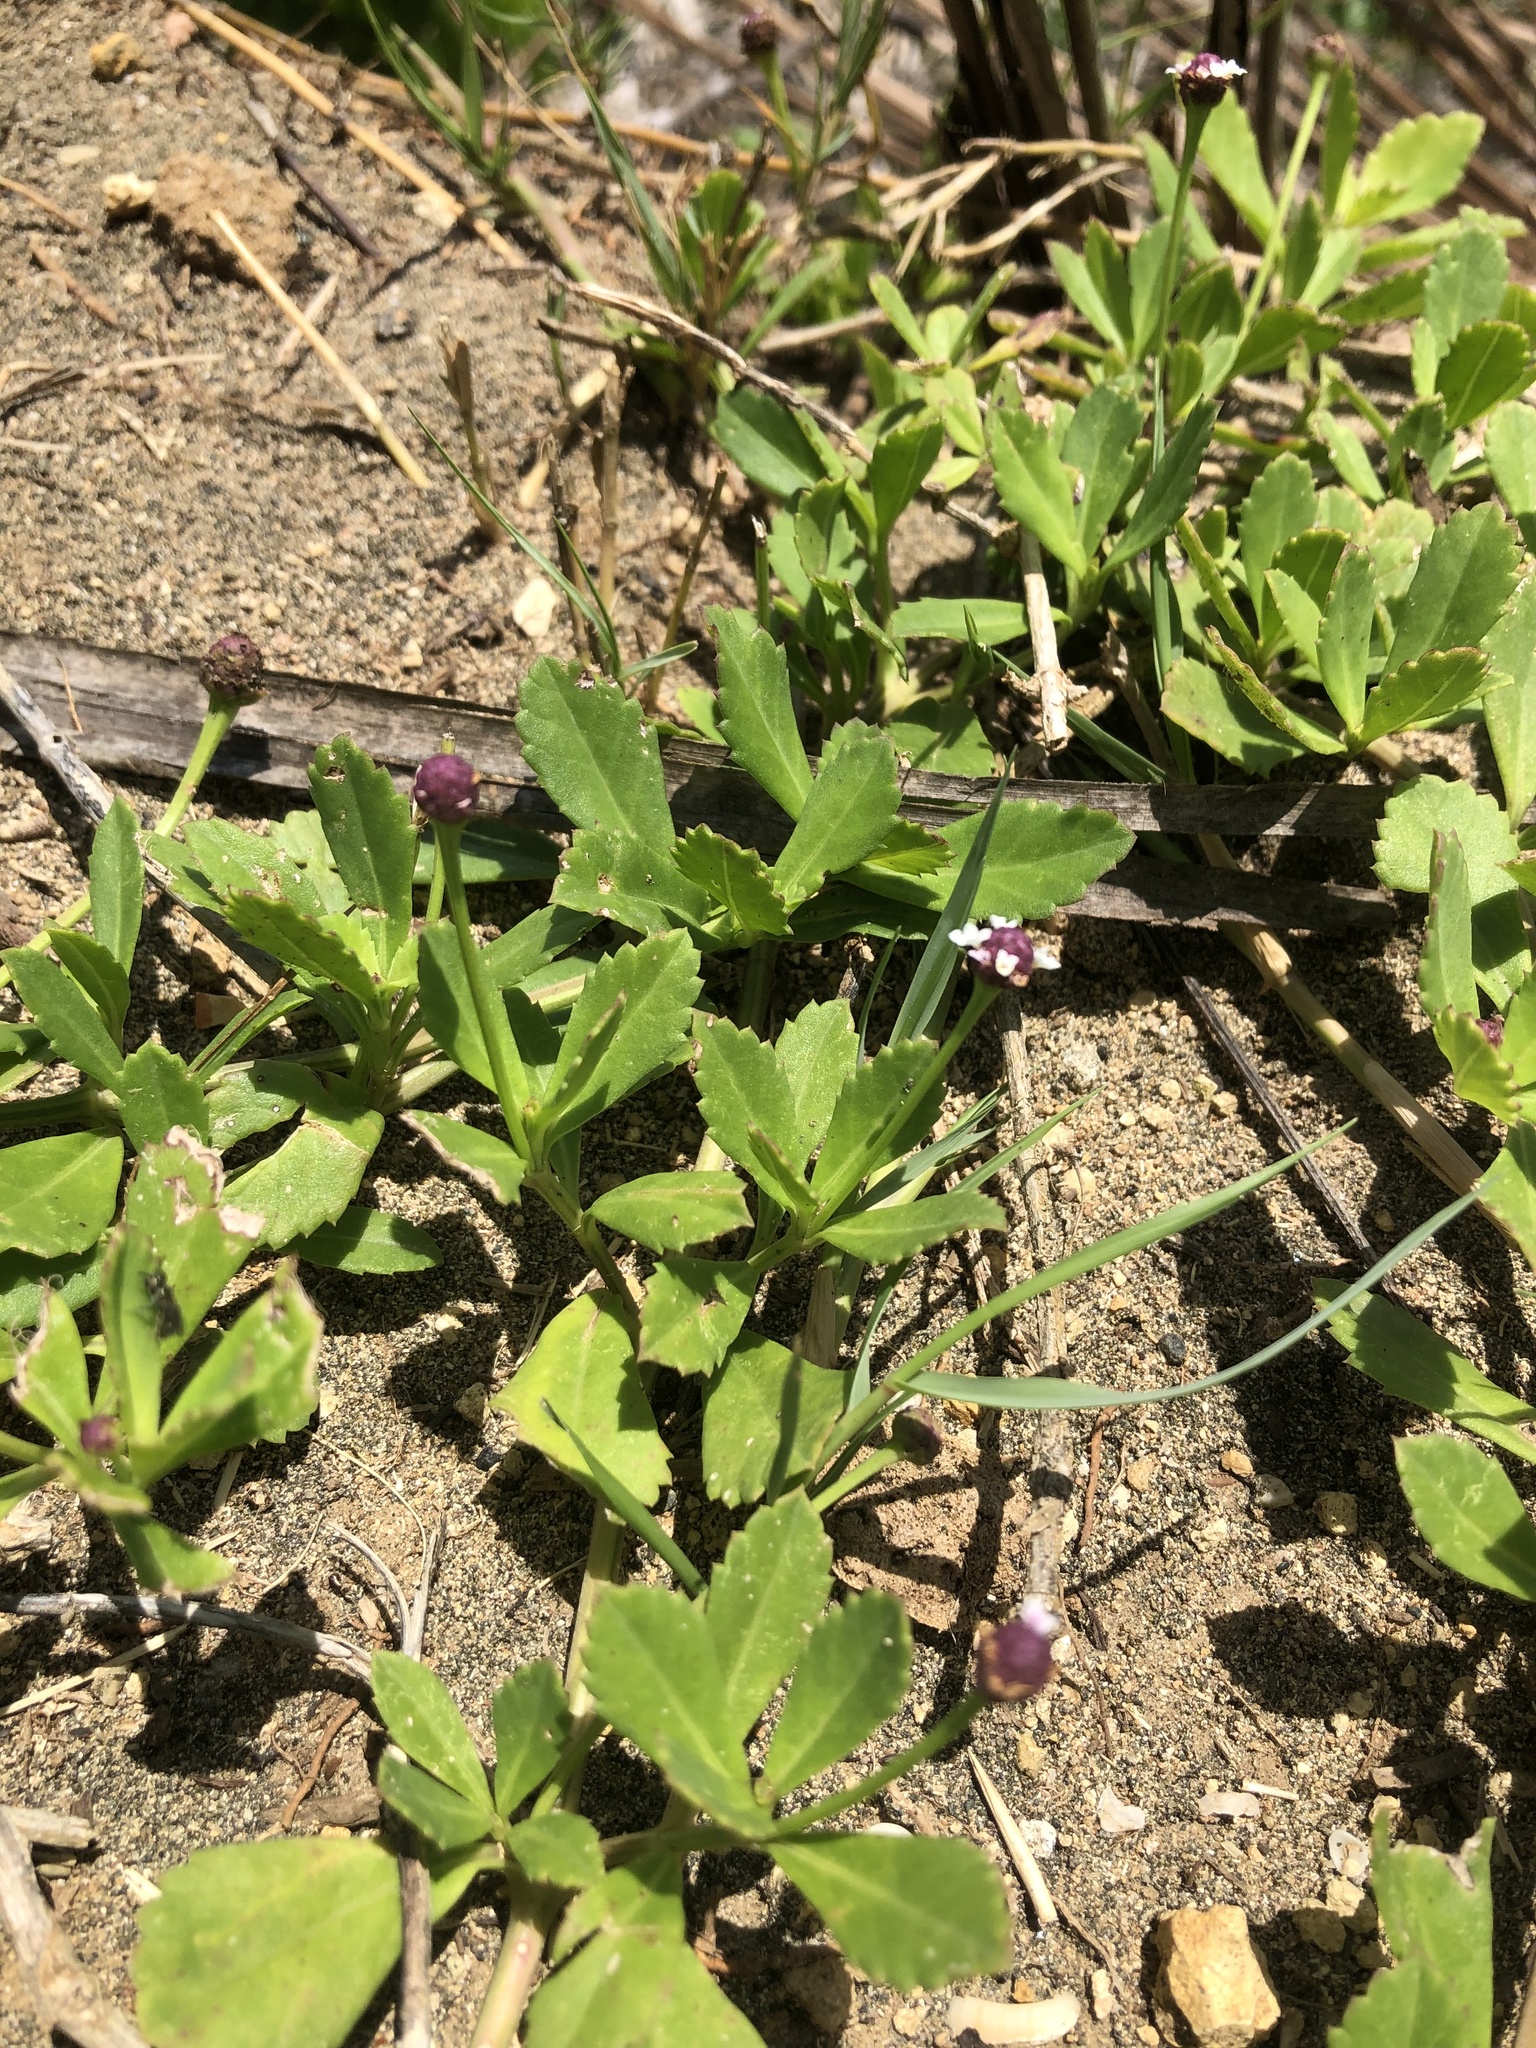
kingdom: Plantae
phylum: Tracheophyta
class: Magnoliopsida
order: Lamiales
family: Verbenaceae
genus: Phyla
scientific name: Phyla nodiflora
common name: Frogfruit
